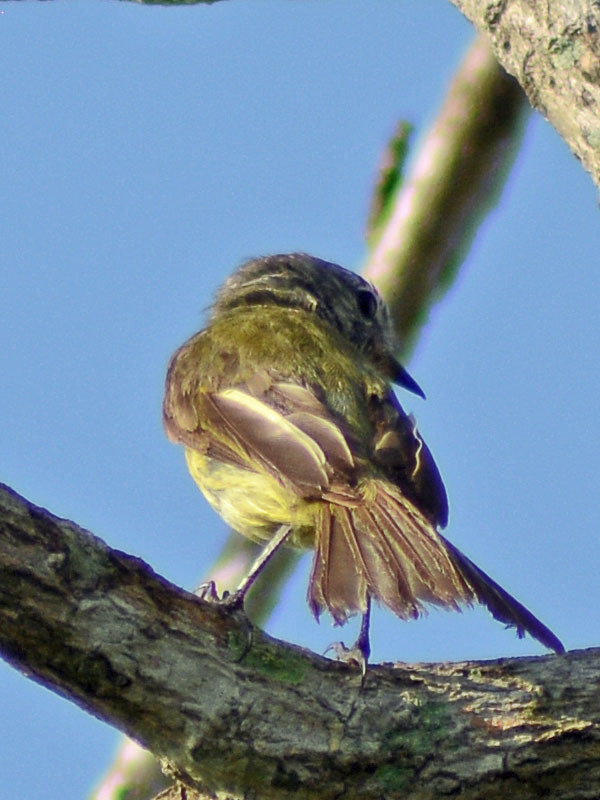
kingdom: Animalia
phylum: Chordata
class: Aves
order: Passeriformes
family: Tyrannidae
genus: Myiopagis
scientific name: Myiopagis viridicata
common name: Greenish elaenia
